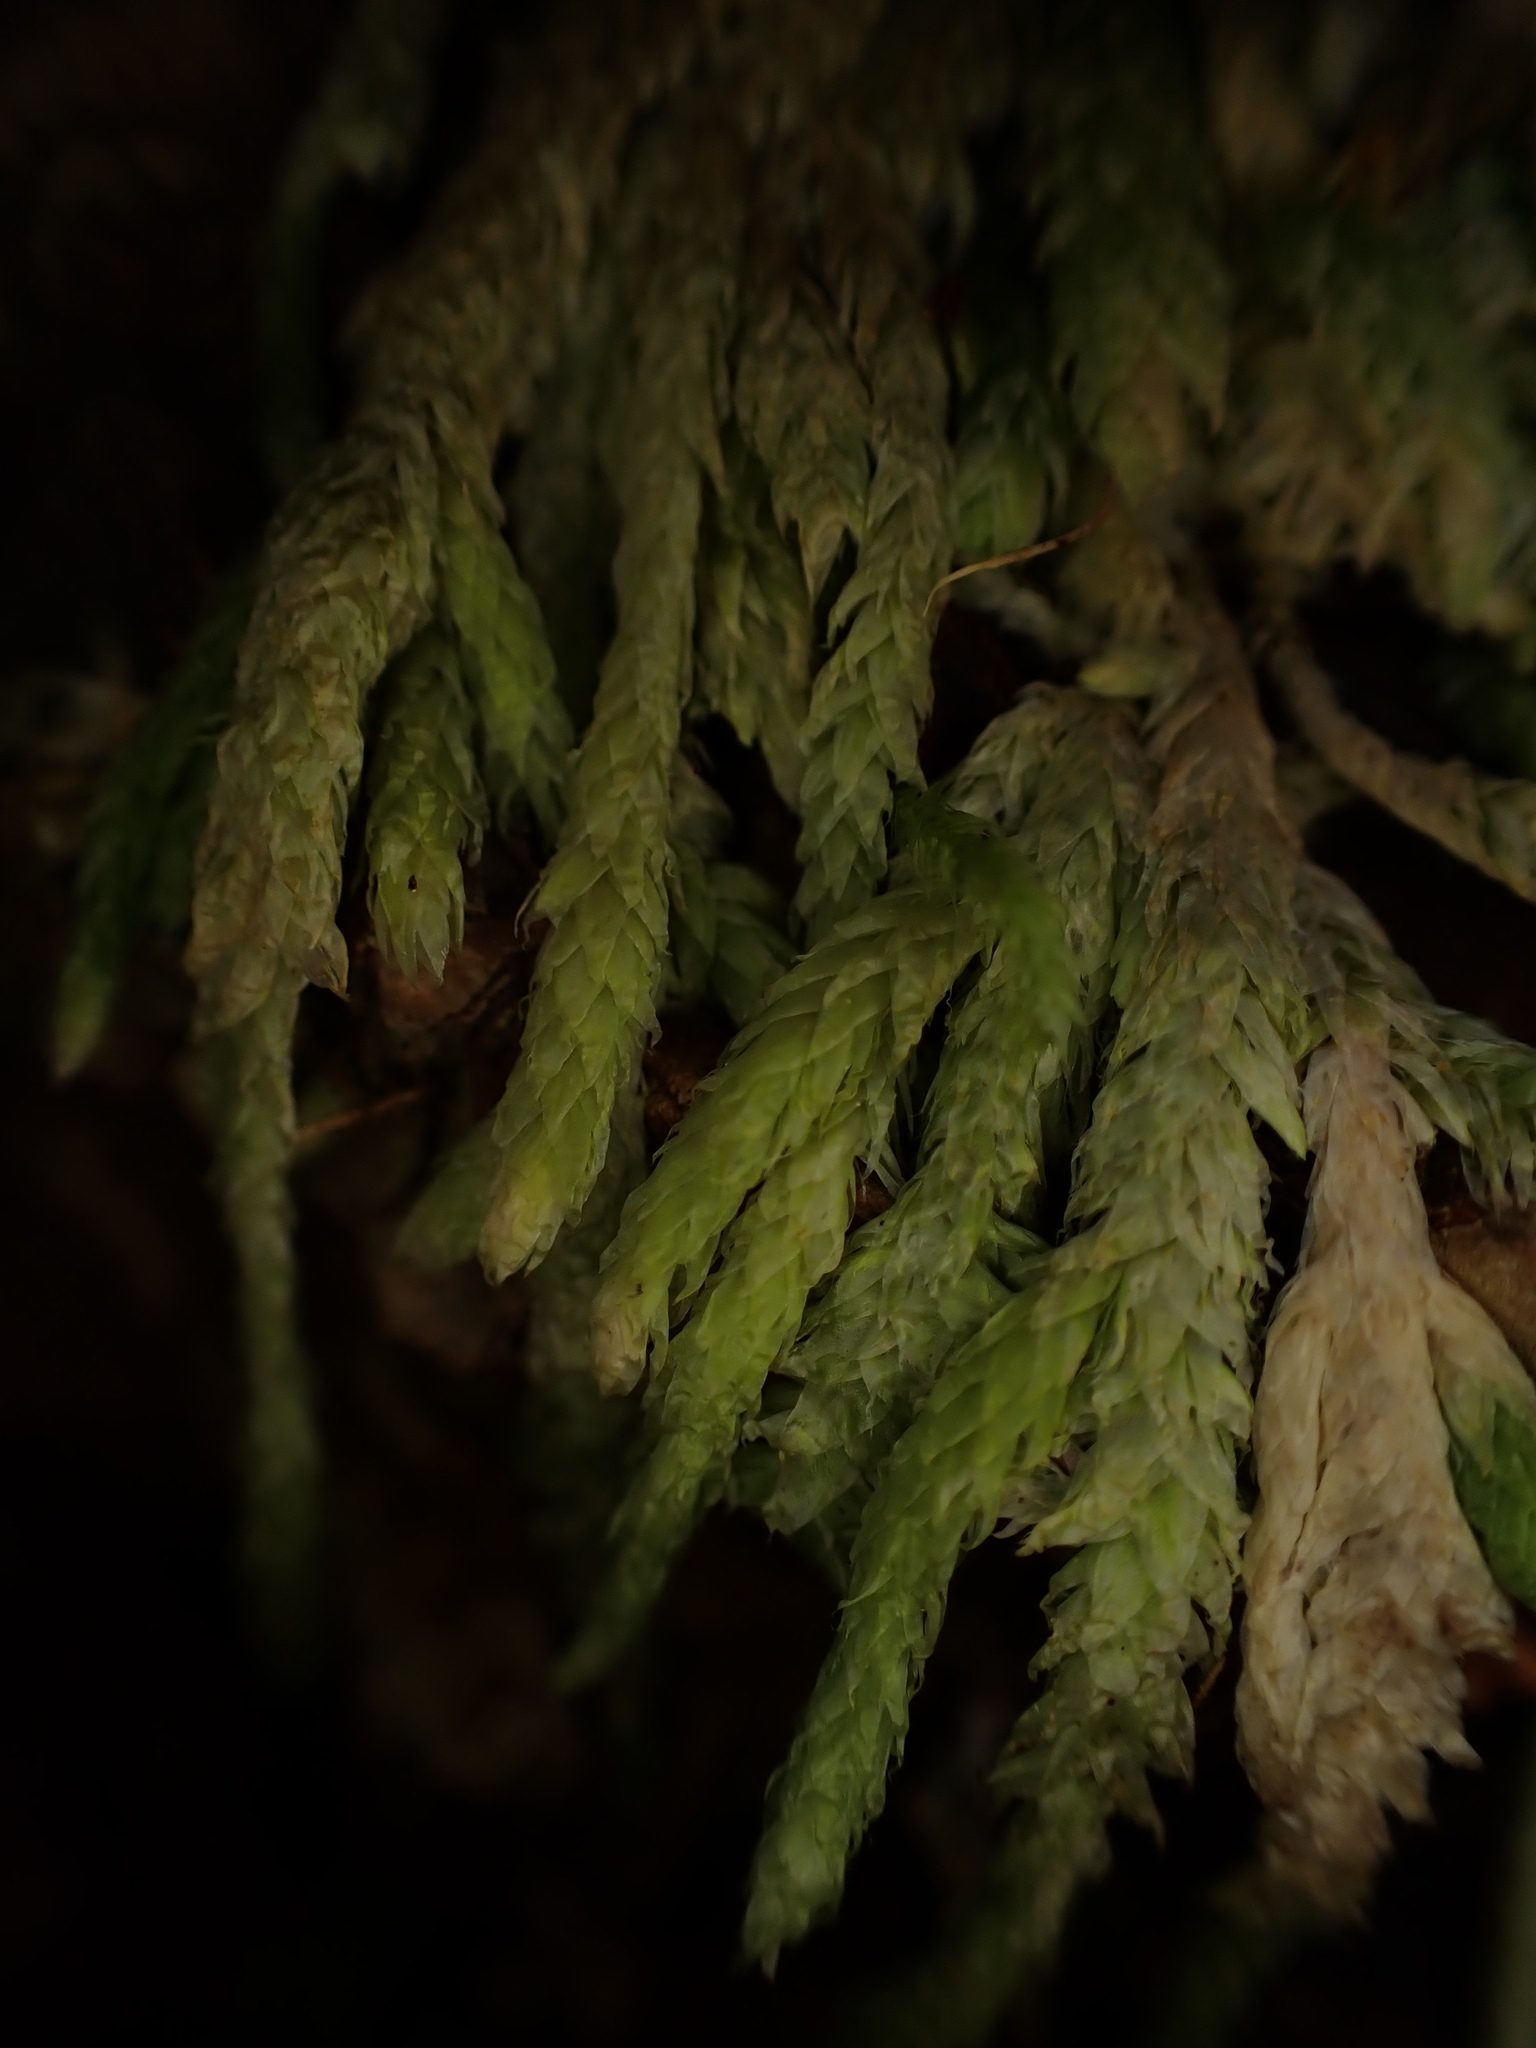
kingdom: Plantae
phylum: Bryophyta
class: Bryopsida
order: Hypnales
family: Plagiotheciaceae
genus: Plagiothecium
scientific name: Plagiothecium undulatum
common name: Waved silk-moss
